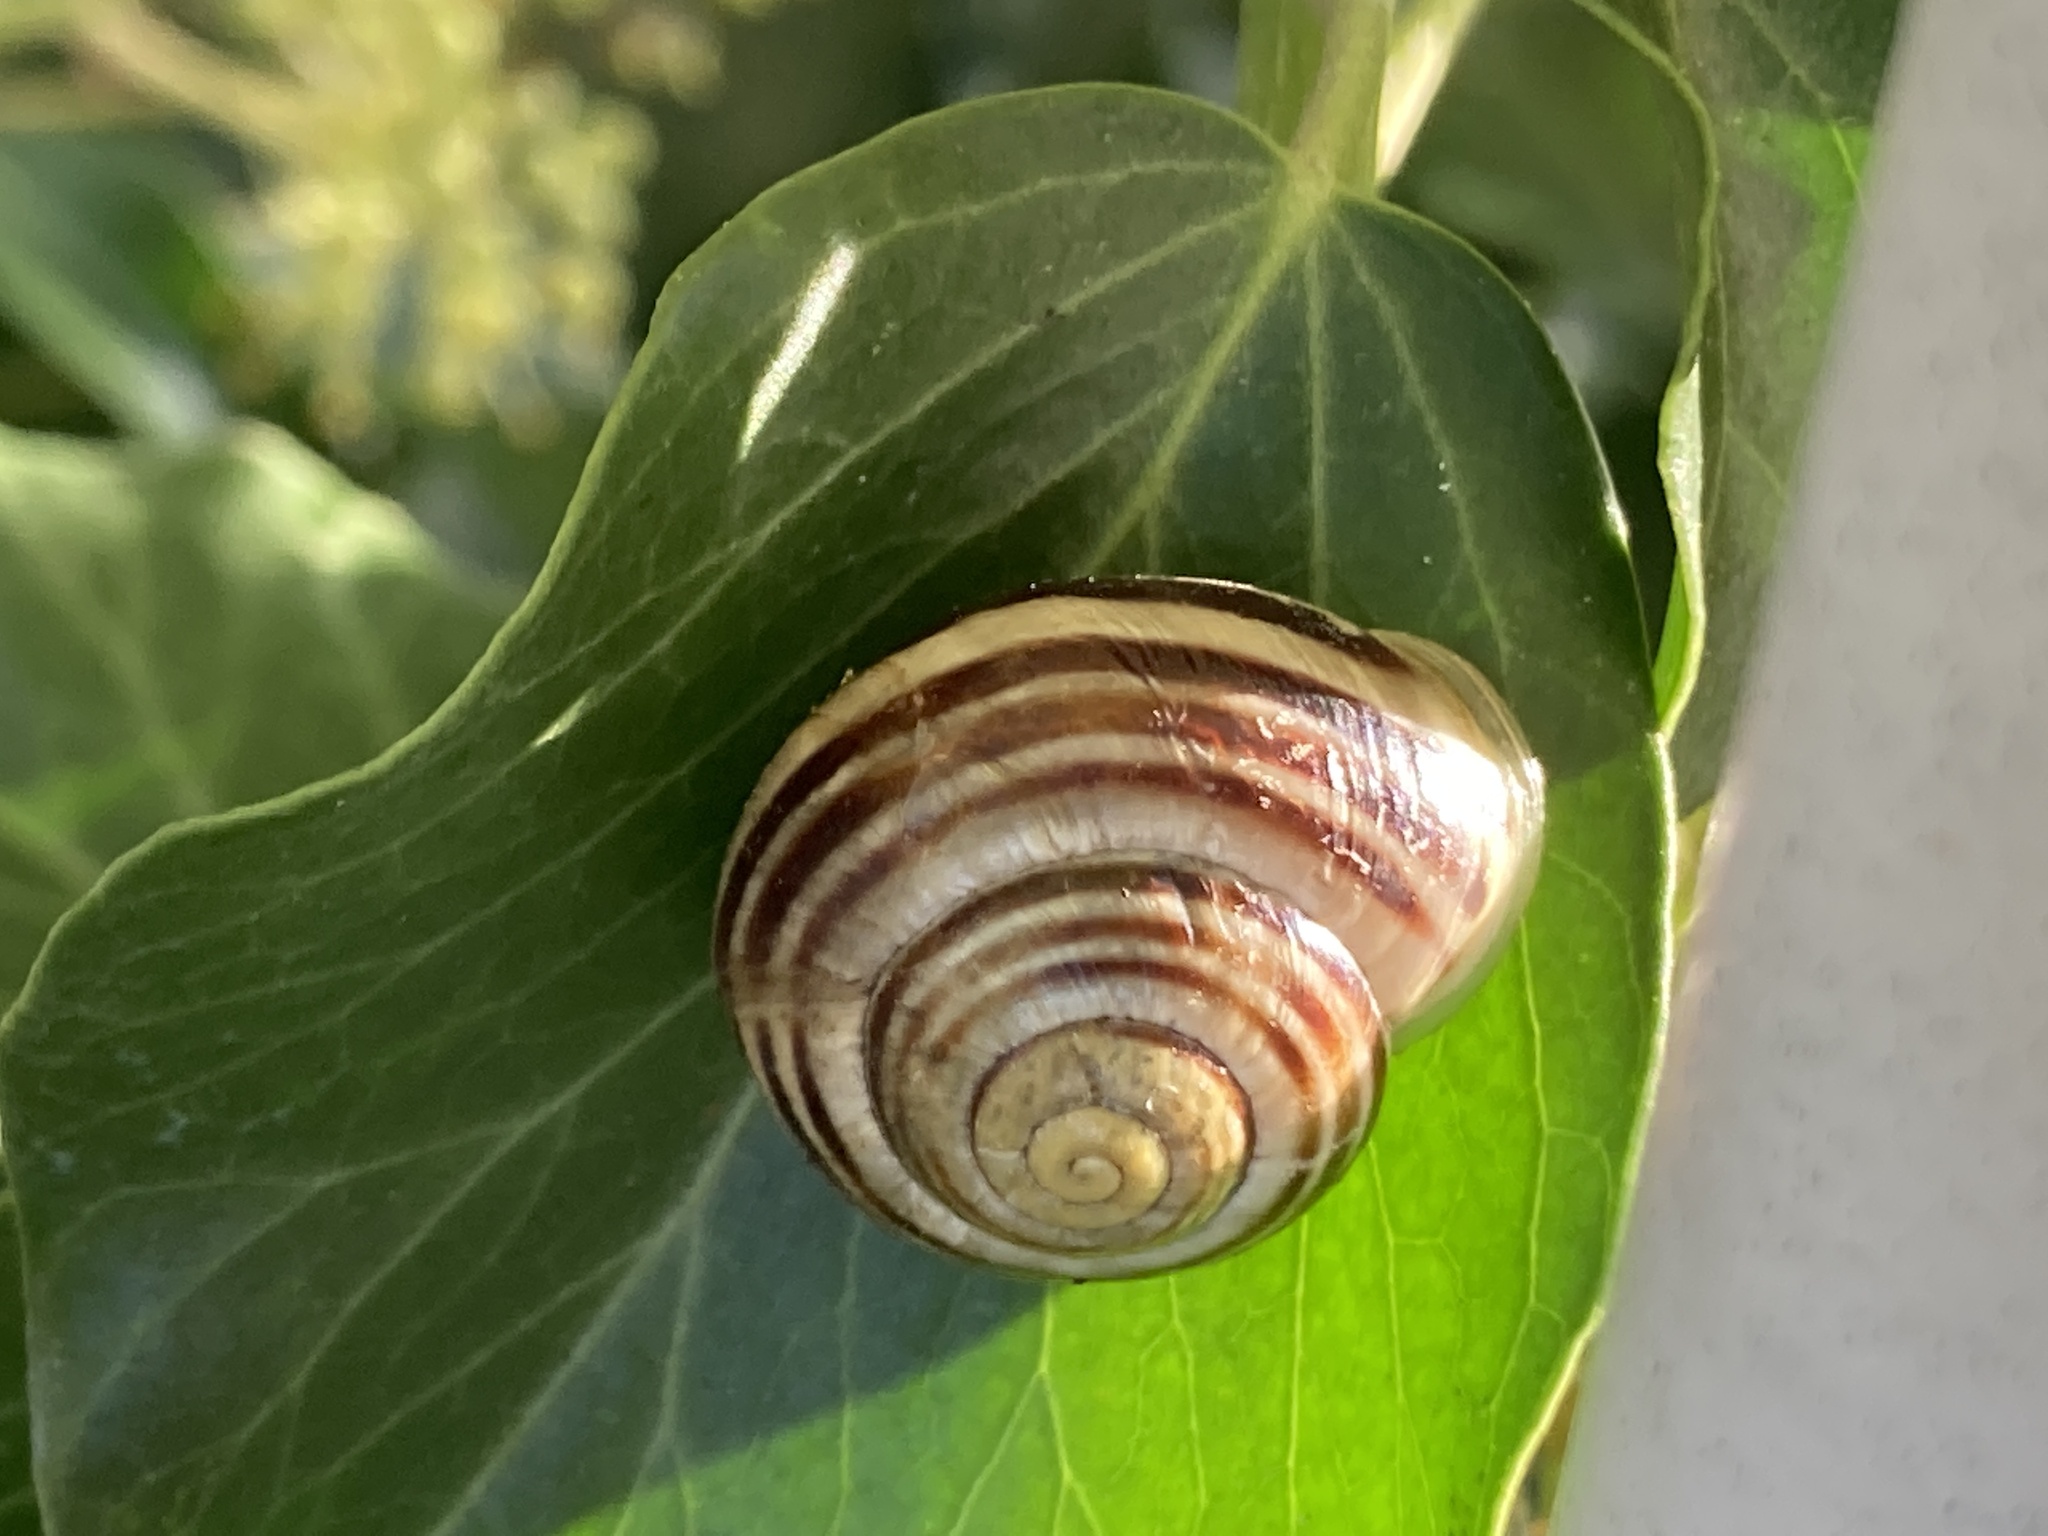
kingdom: Animalia
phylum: Mollusca
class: Gastropoda
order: Stylommatophora
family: Helicidae
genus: Cepaea
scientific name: Cepaea hortensis
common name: White-lip gardensnail
